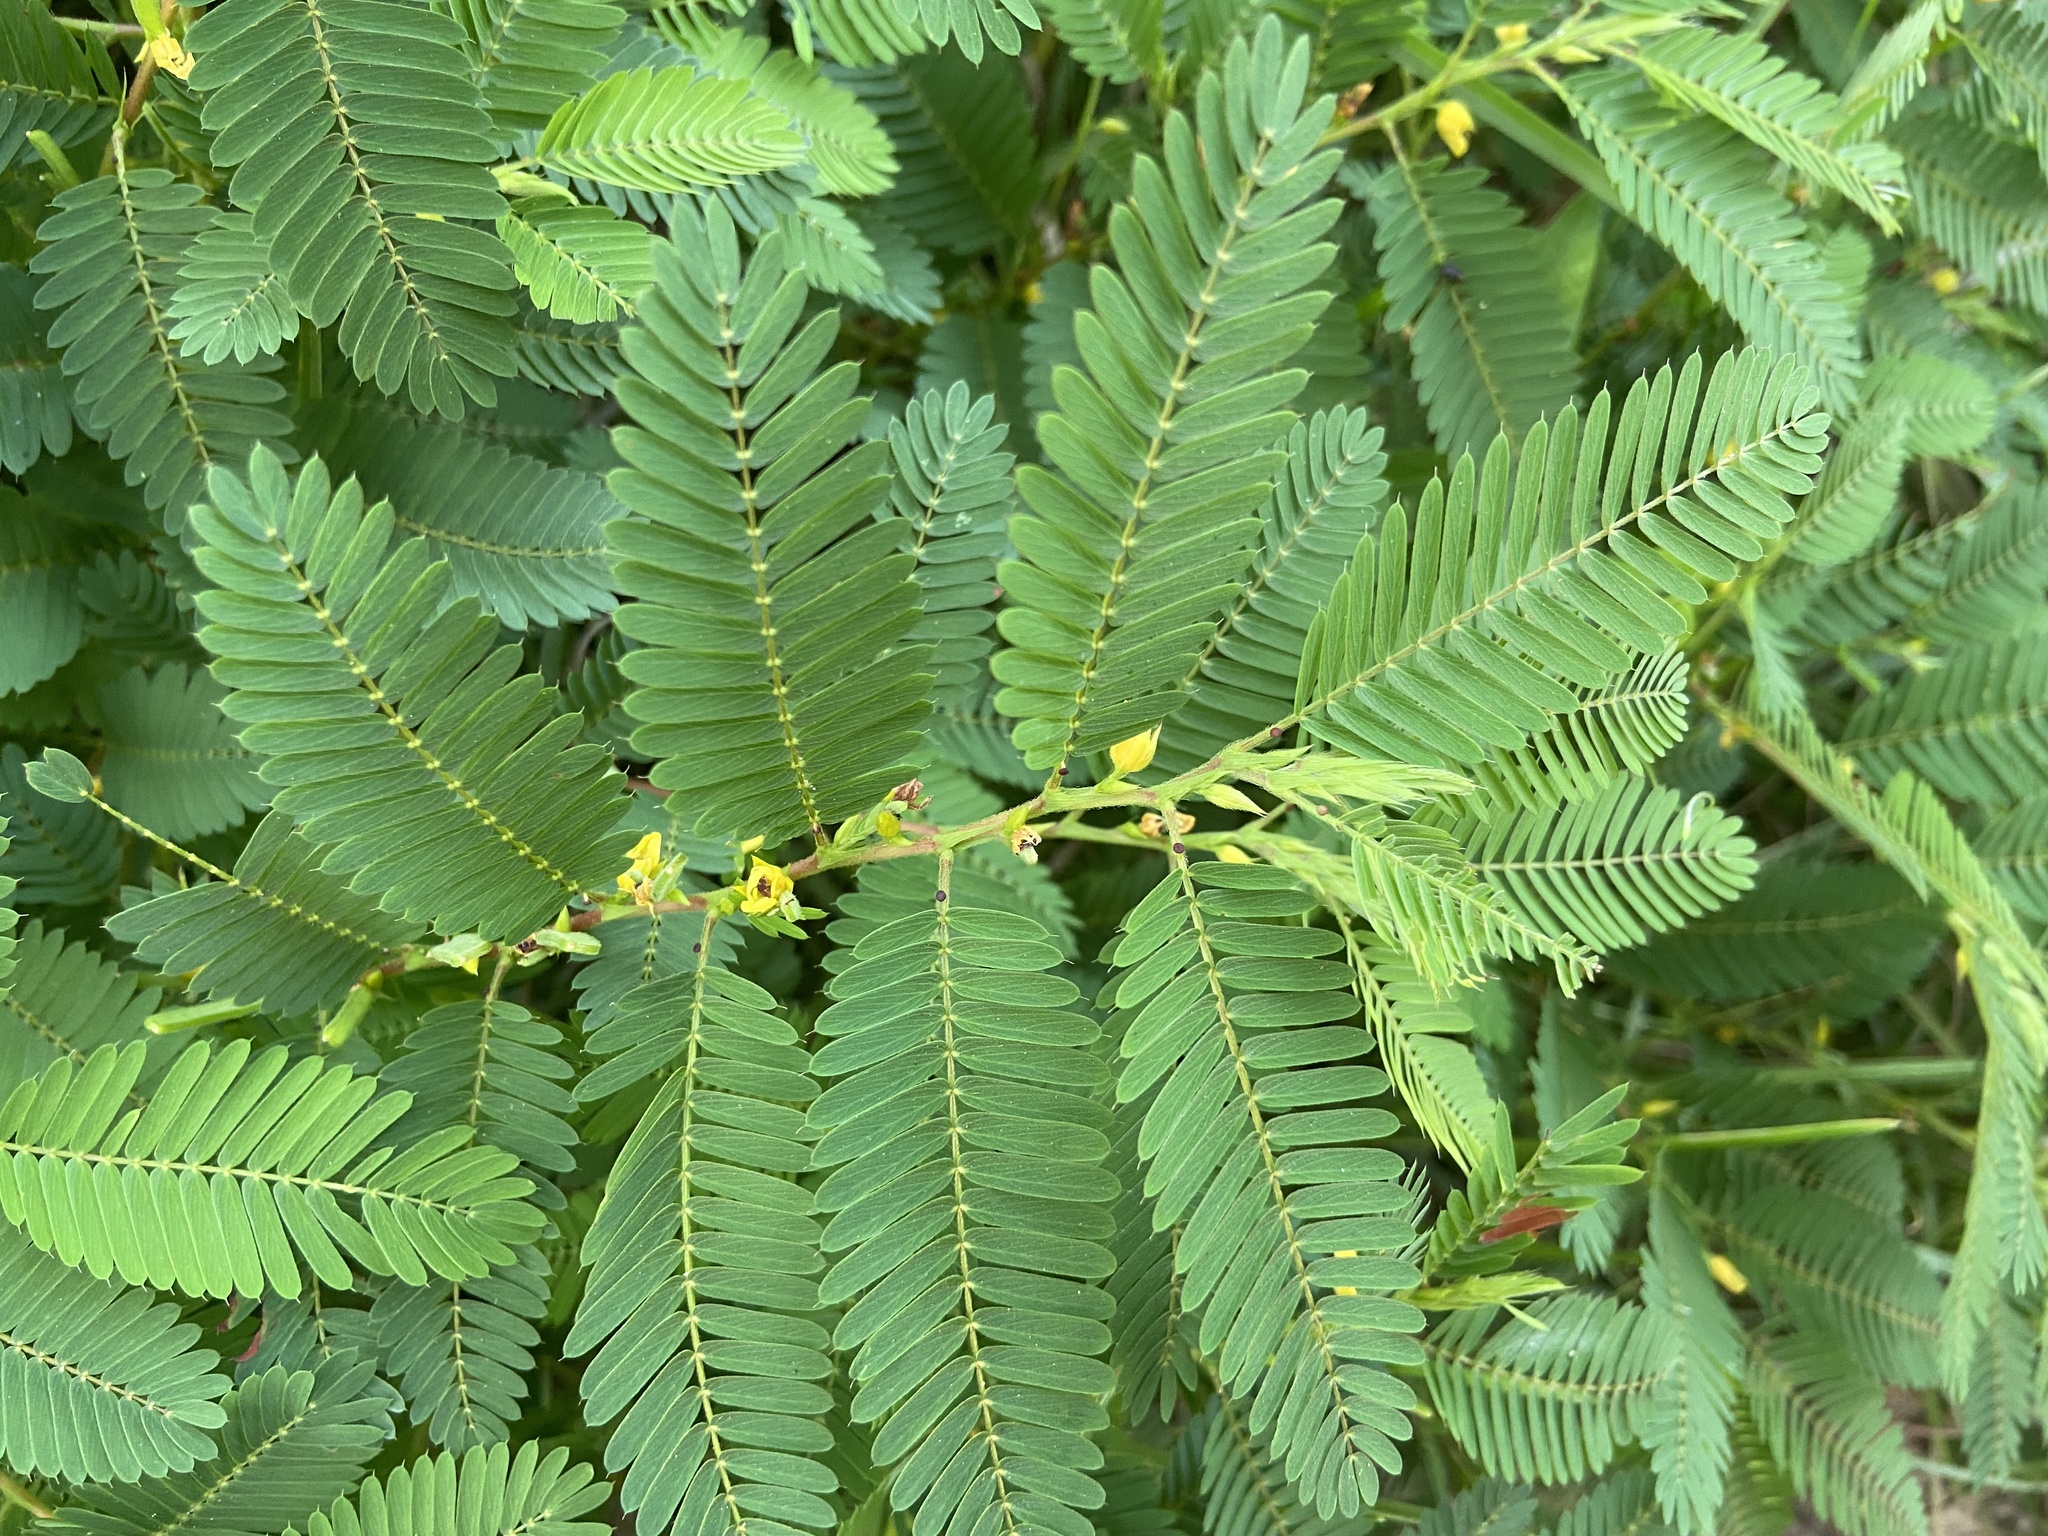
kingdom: Plantae
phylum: Tracheophyta
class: Magnoliopsida
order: Fabales
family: Fabaceae
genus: Chamaecrista
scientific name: Chamaecrista nictitans
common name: Sensitive cassia
